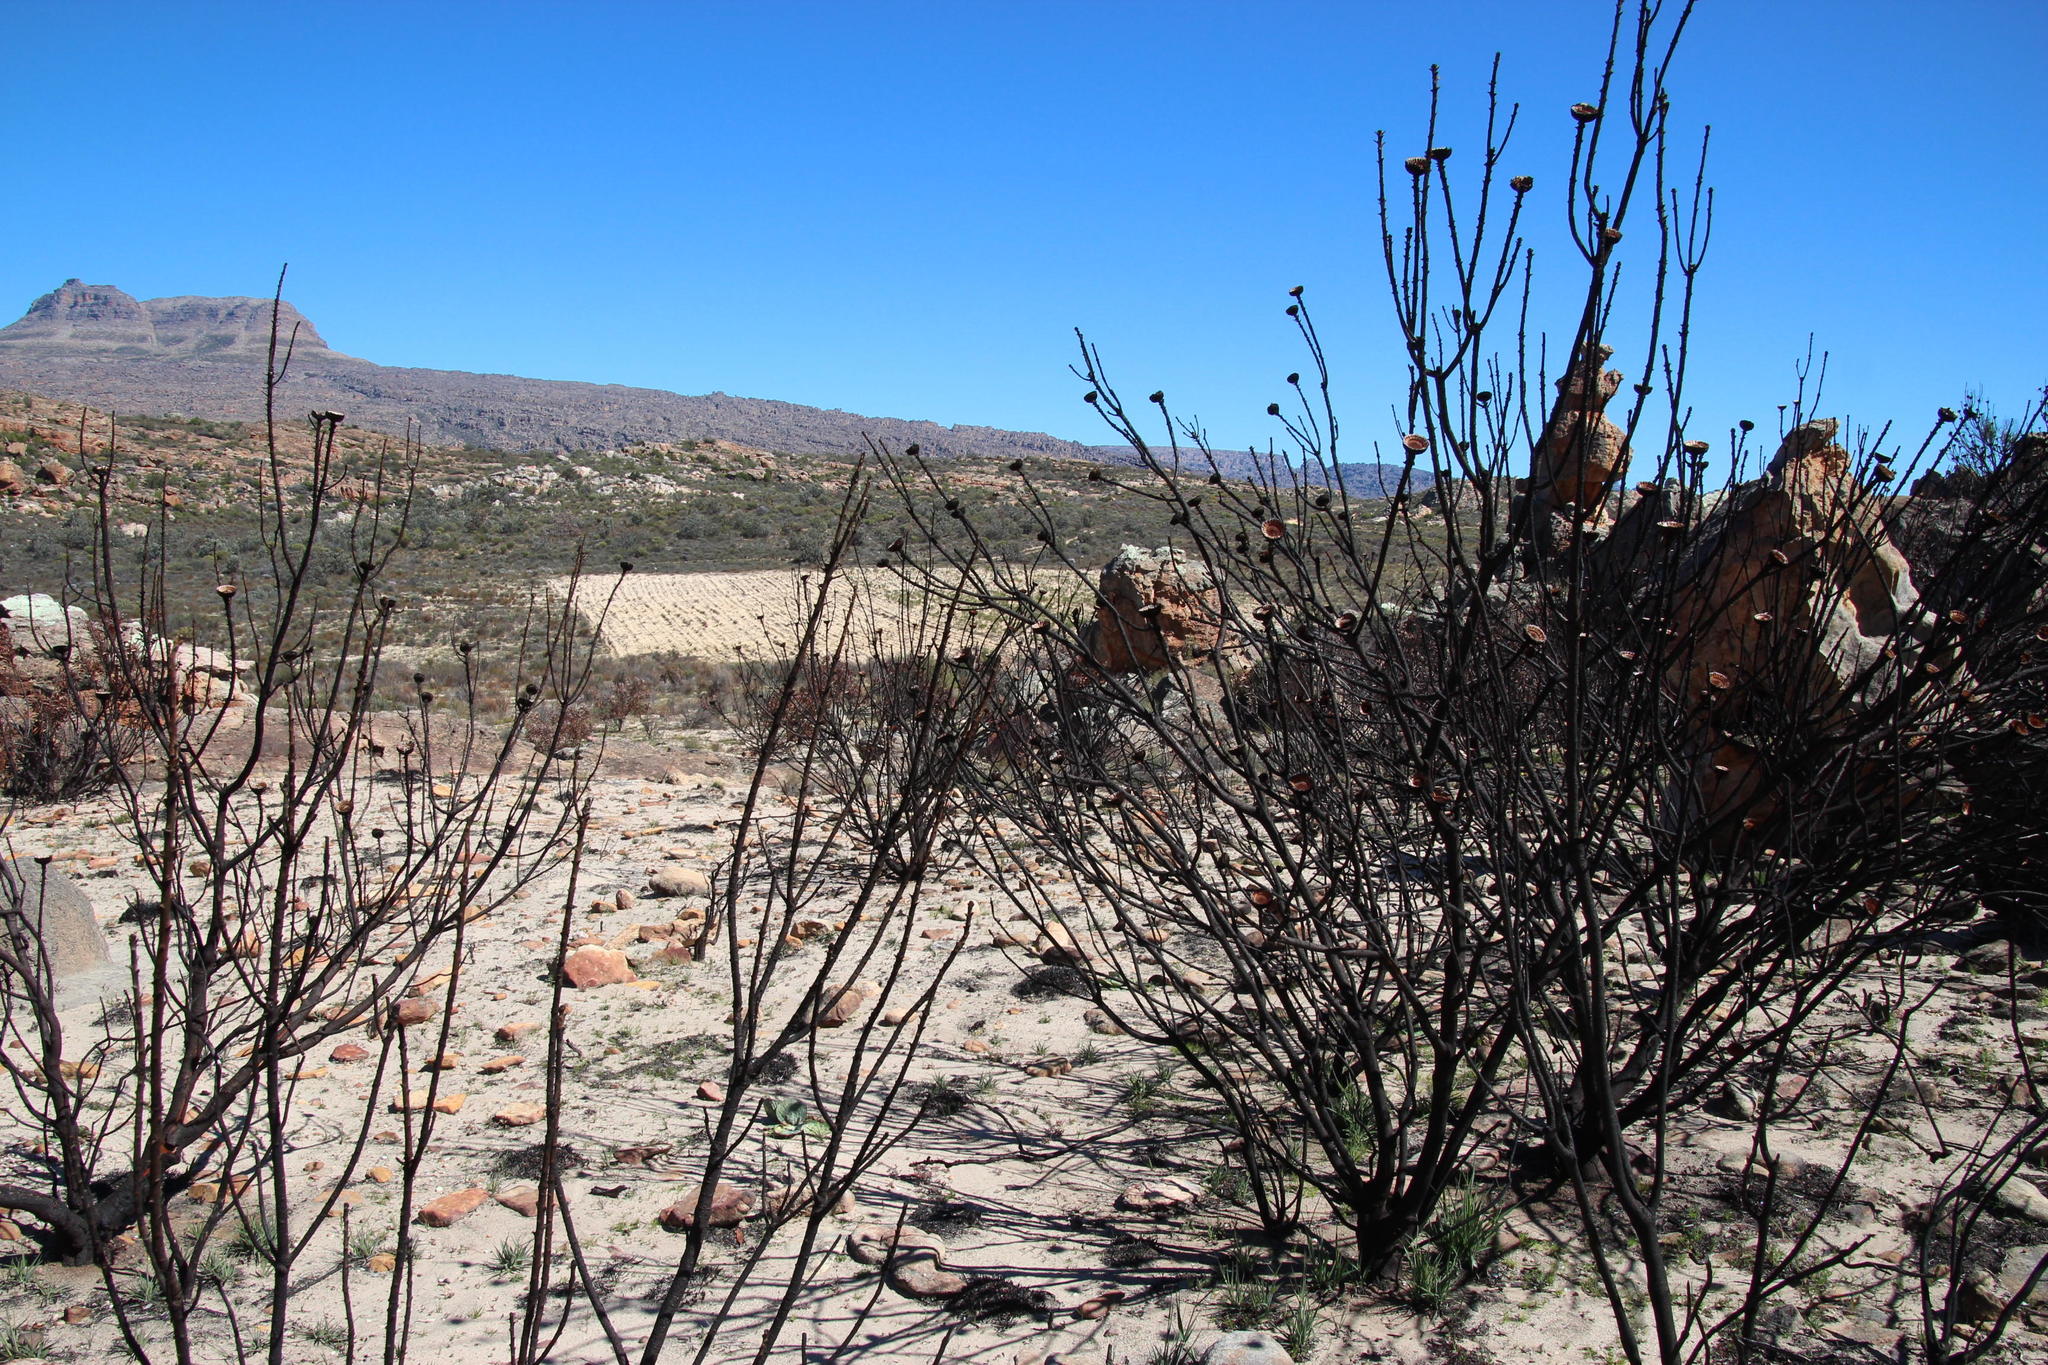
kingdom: Plantae
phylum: Tracheophyta
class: Magnoliopsida
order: Proteales
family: Proteaceae
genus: Protea
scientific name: Protea laurifolia
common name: Grey-leaf sugarbsh
